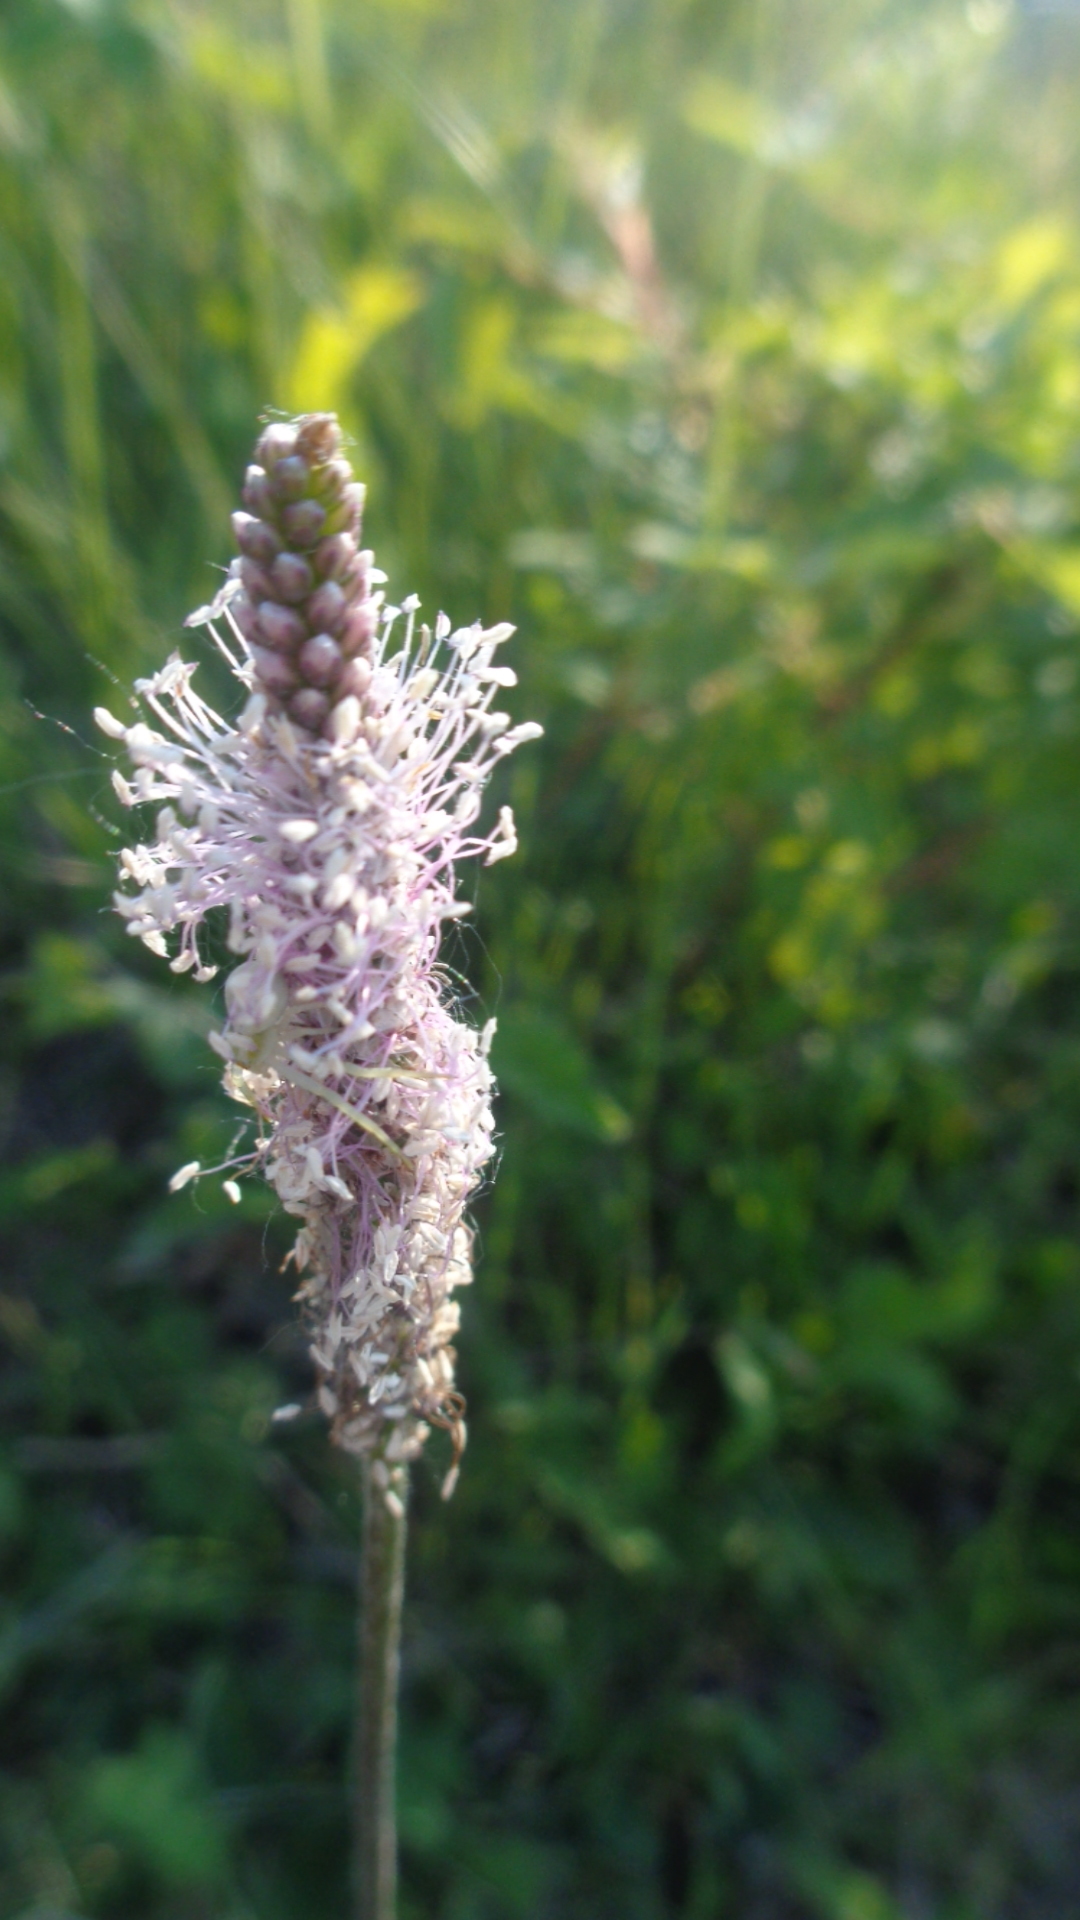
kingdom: Plantae
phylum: Tracheophyta
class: Magnoliopsida
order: Lamiales
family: Plantaginaceae
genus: Plantago
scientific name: Plantago media
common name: Hoary plantain
